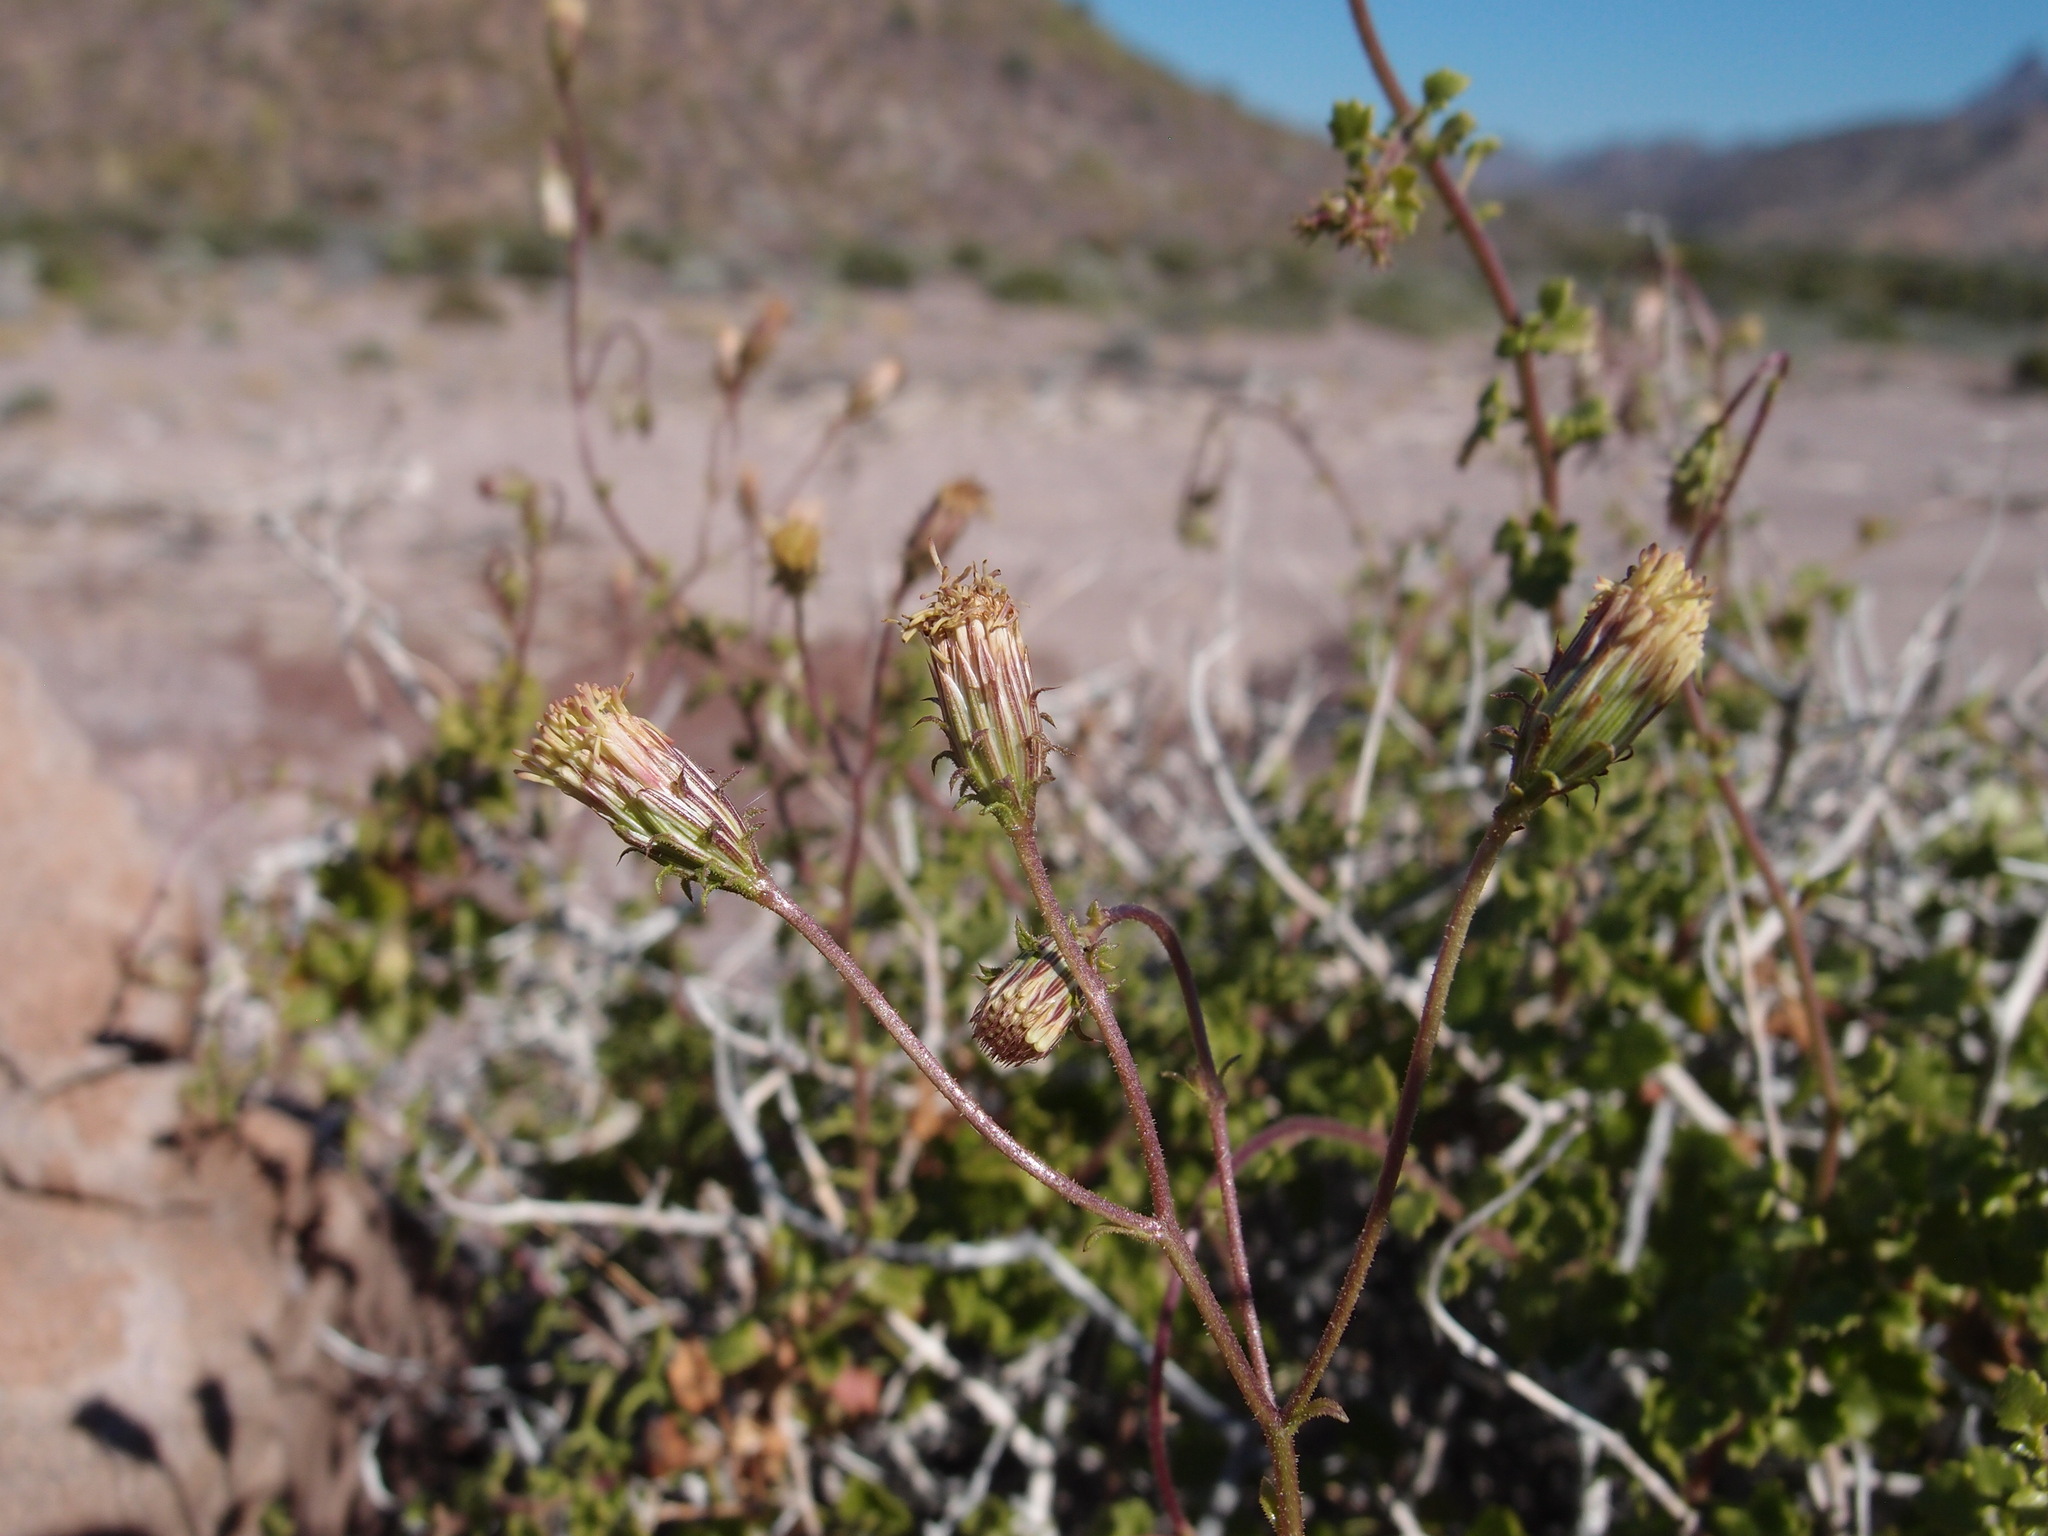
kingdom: Plantae
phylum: Tracheophyta
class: Magnoliopsida
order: Asterales
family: Asteraceae
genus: Pleurocoronis
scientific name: Pleurocoronis laphamioides
